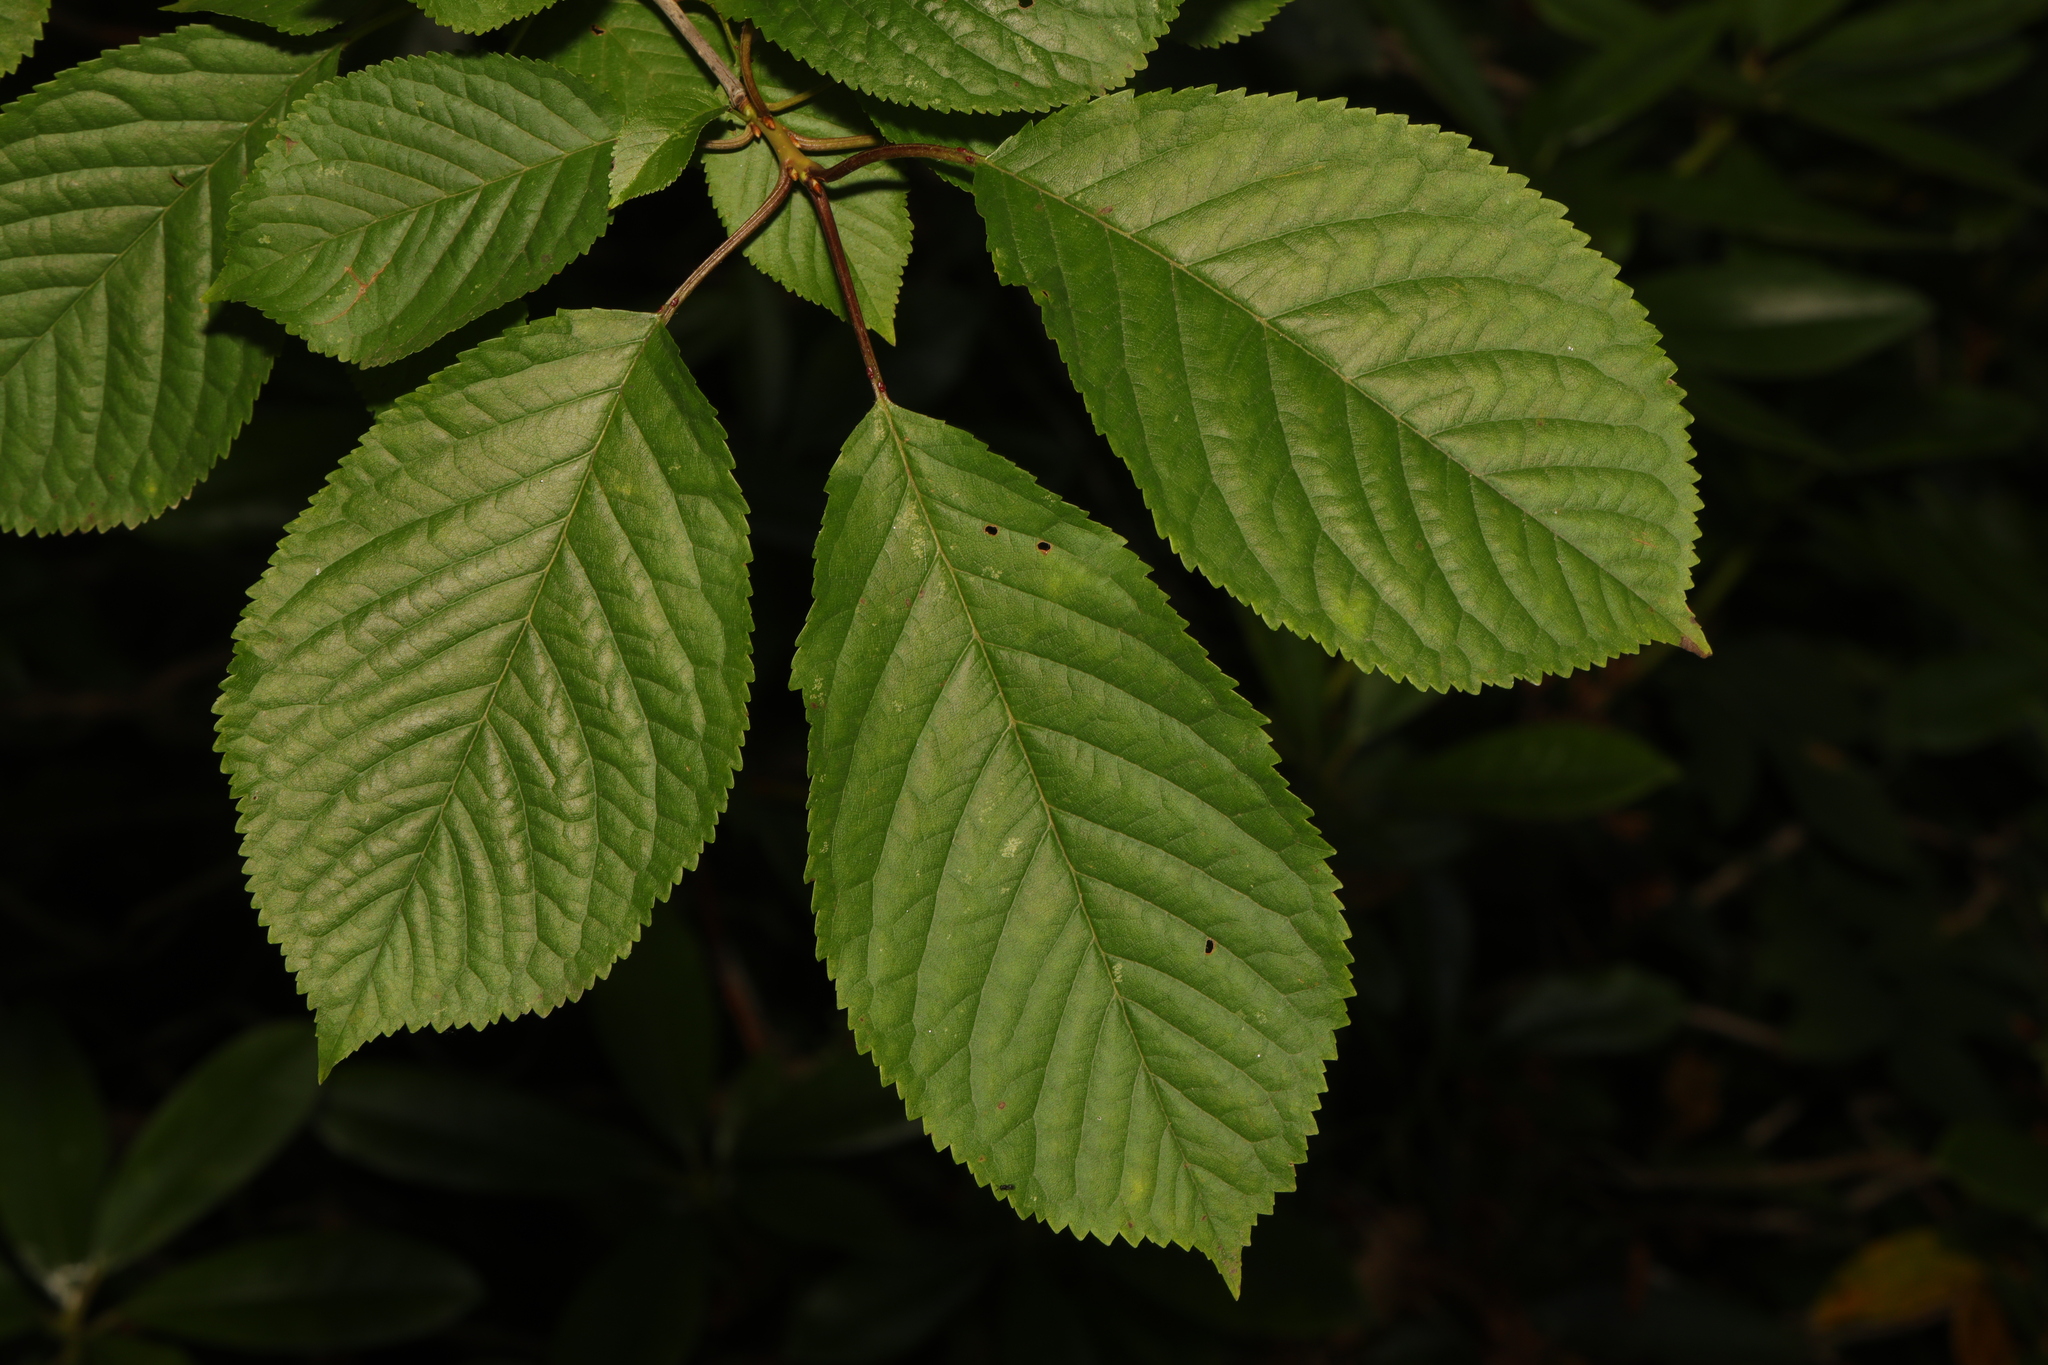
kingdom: Plantae
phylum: Tracheophyta
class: Magnoliopsida
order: Rosales
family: Rosaceae
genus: Prunus
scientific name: Prunus avium
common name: Sweet cherry
